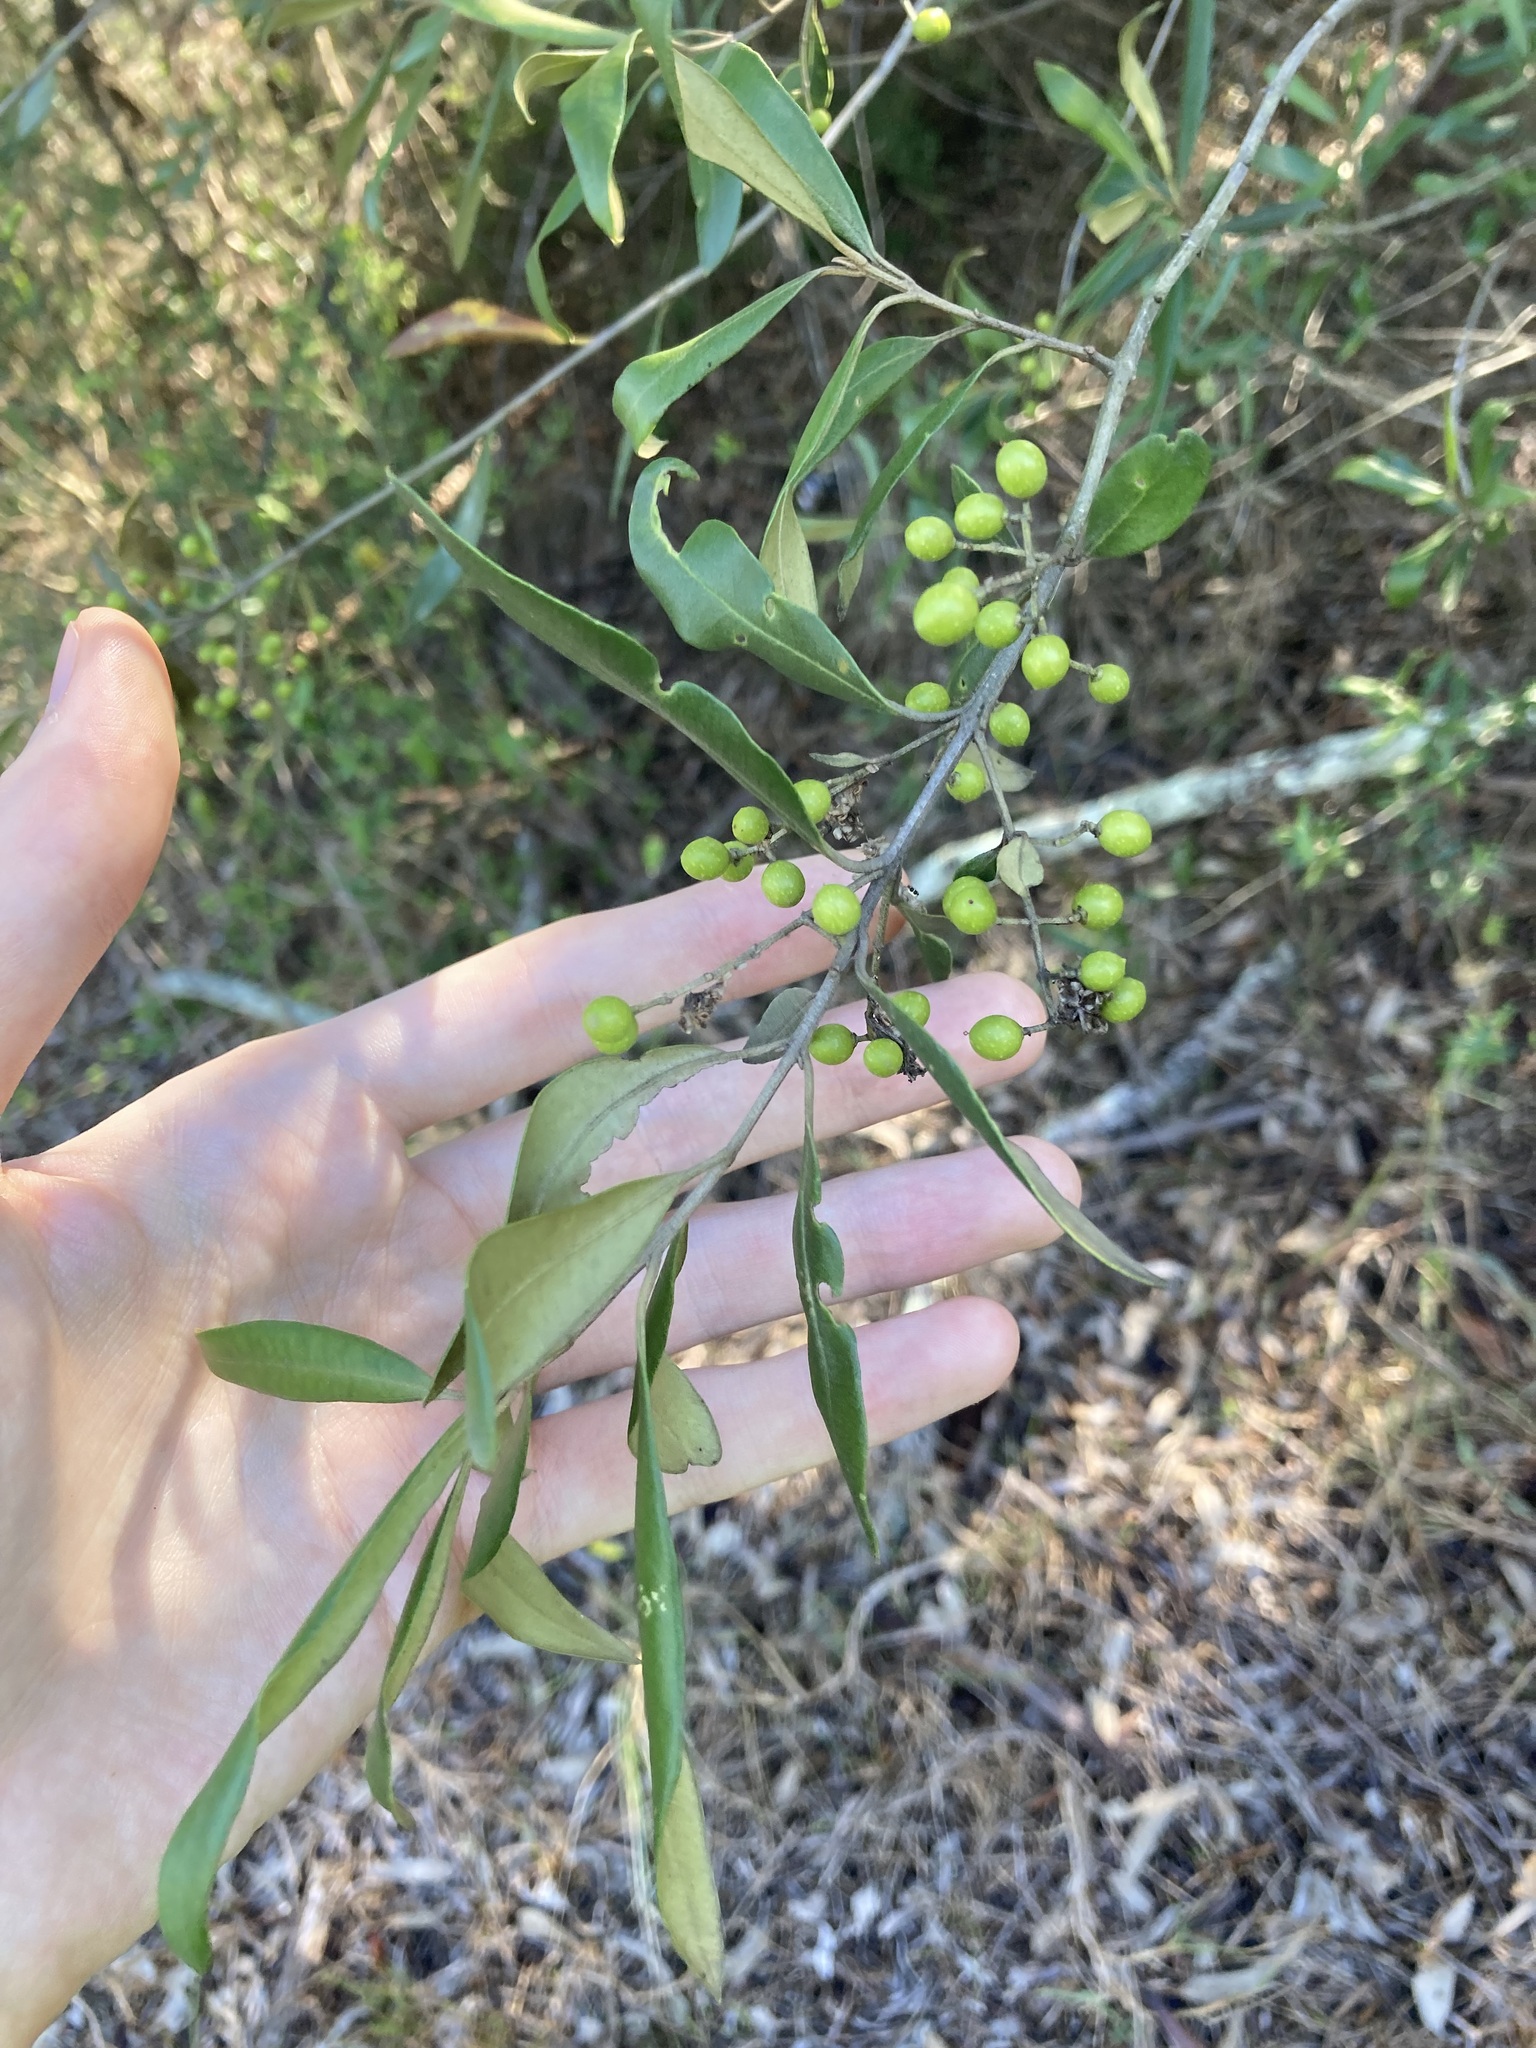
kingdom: Plantae
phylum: Tracheophyta
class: Magnoliopsida
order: Lamiales
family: Oleaceae
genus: Olea
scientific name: Olea europaea
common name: Olive
